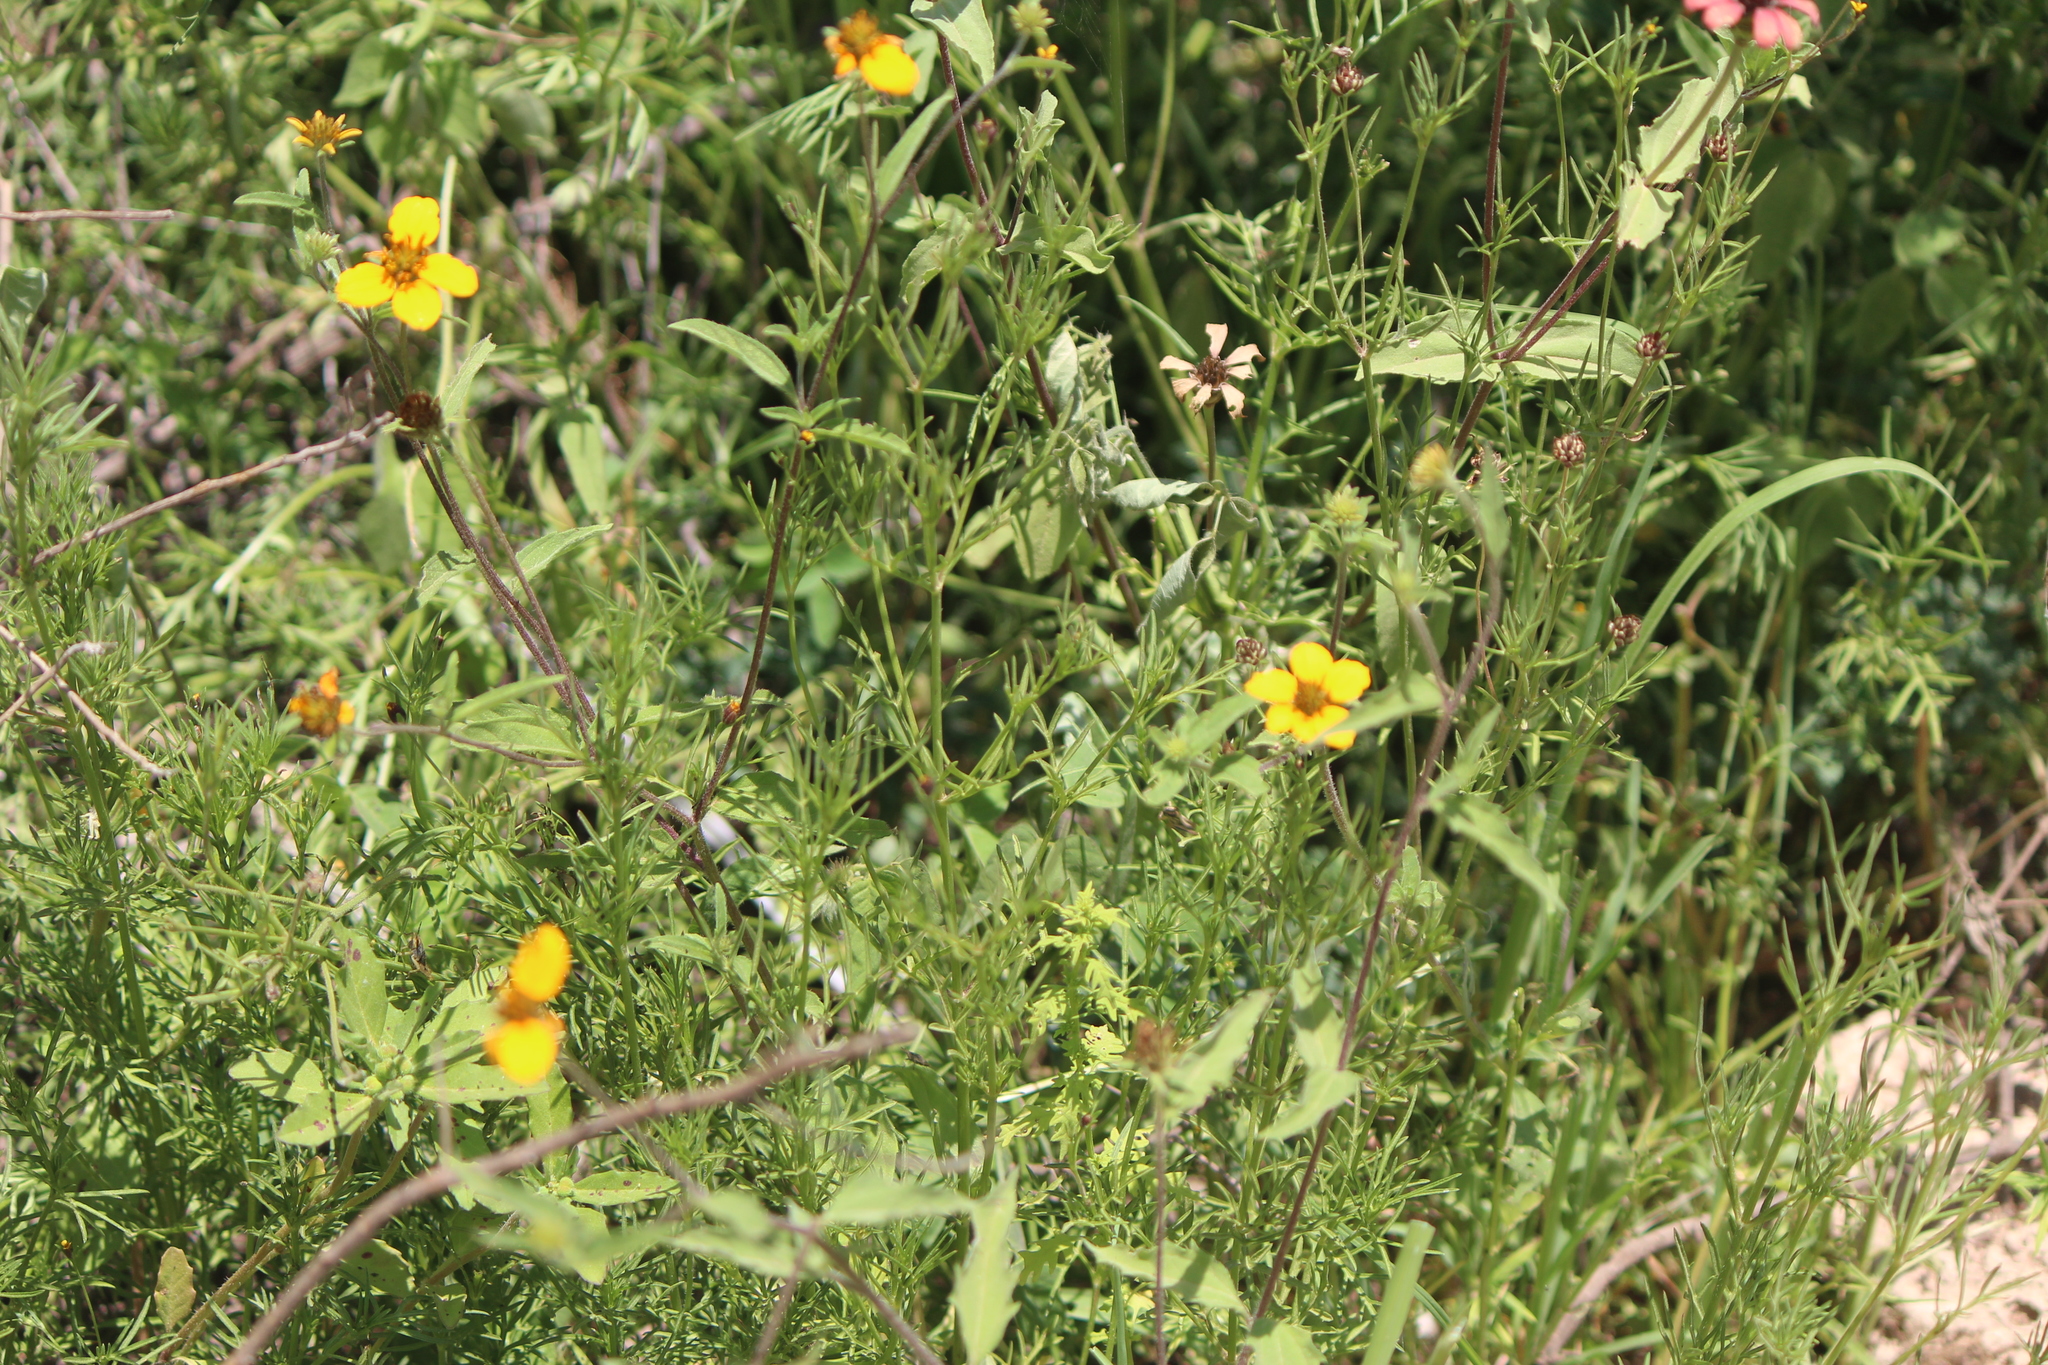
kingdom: Plantae
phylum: Tracheophyta
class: Magnoliopsida
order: Asterales
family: Asteraceae
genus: Sclerocarpus
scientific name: Sclerocarpus uniserialis
